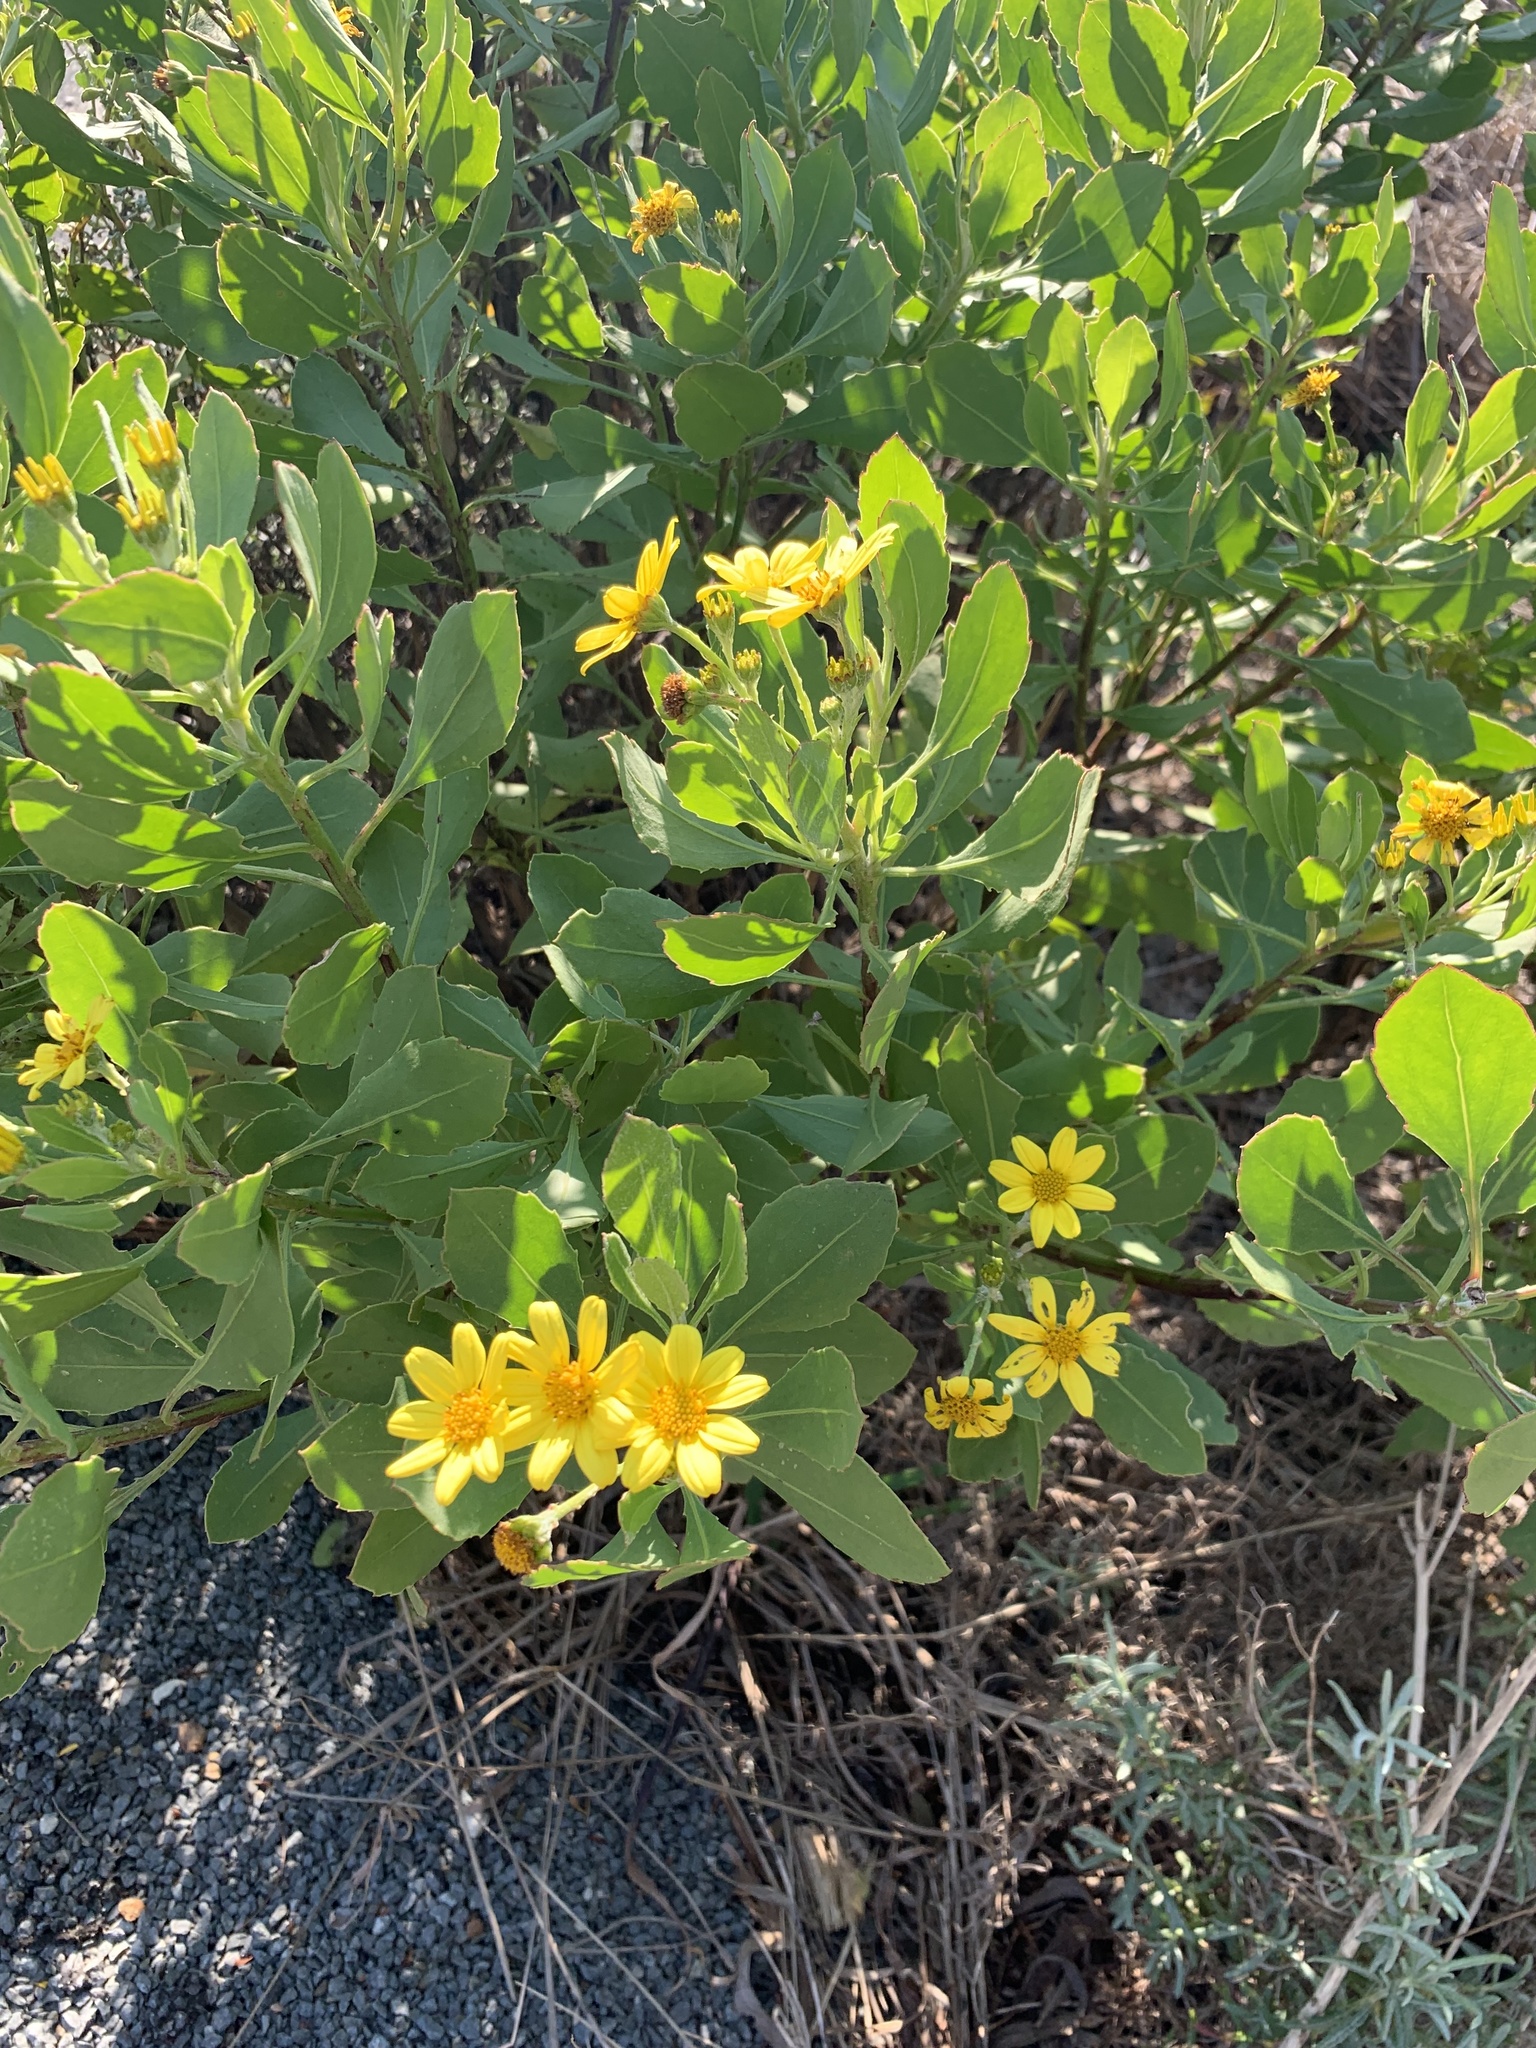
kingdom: Plantae
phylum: Tracheophyta
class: Magnoliopsida
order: Asterales
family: Asteraceae
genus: Osteospermum
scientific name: Osteospermum moniliferum
